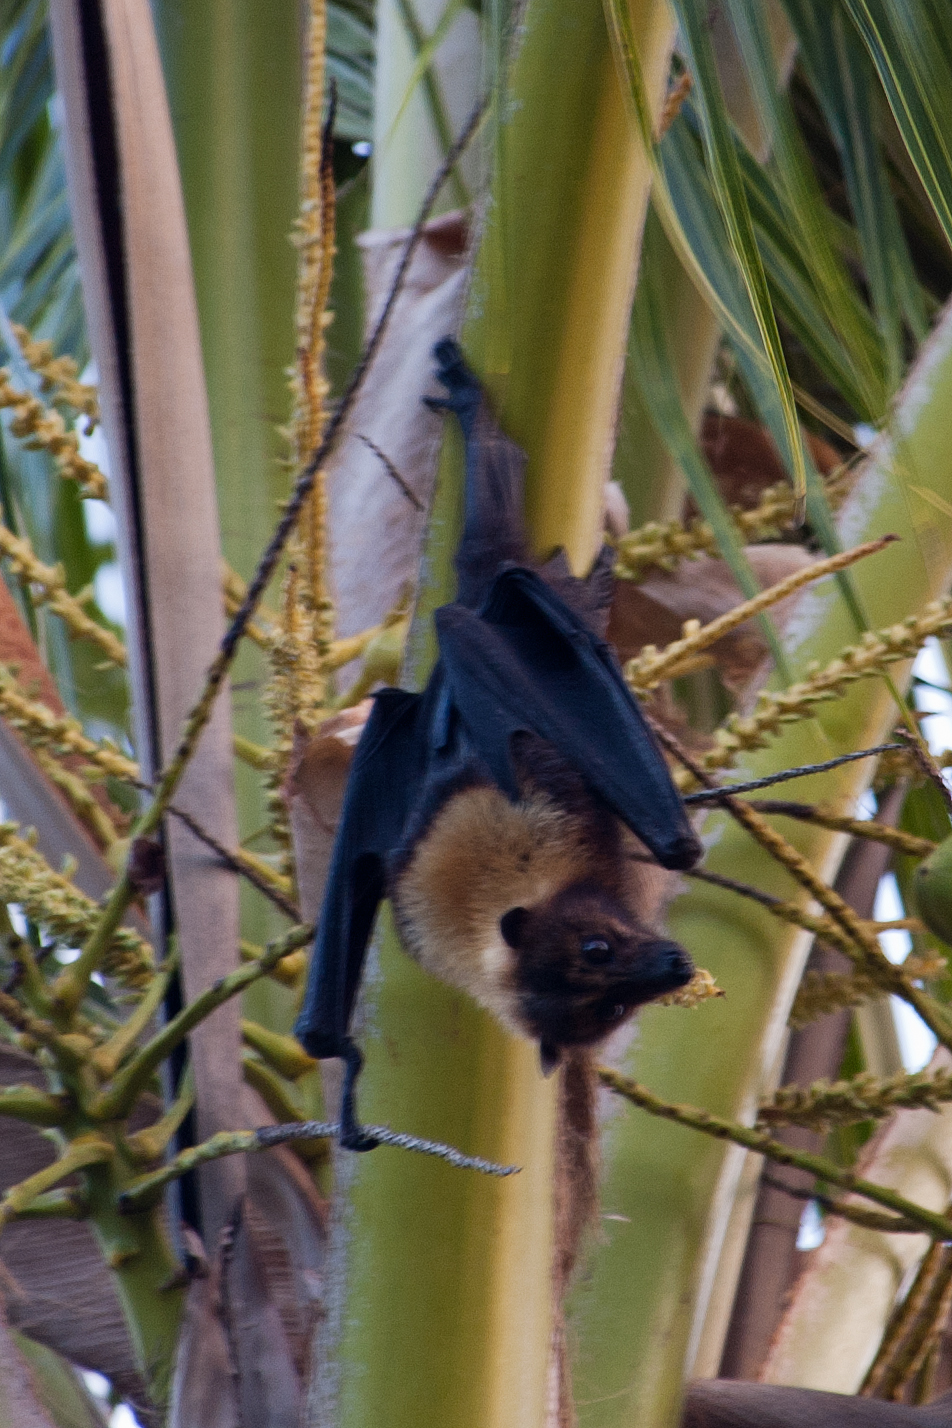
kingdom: Animalia
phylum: Chordata
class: Mammalia
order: Chiroptera
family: Pteropodidae
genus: Pteropus
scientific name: Pteropus tonganus
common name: Pacific flying fox
